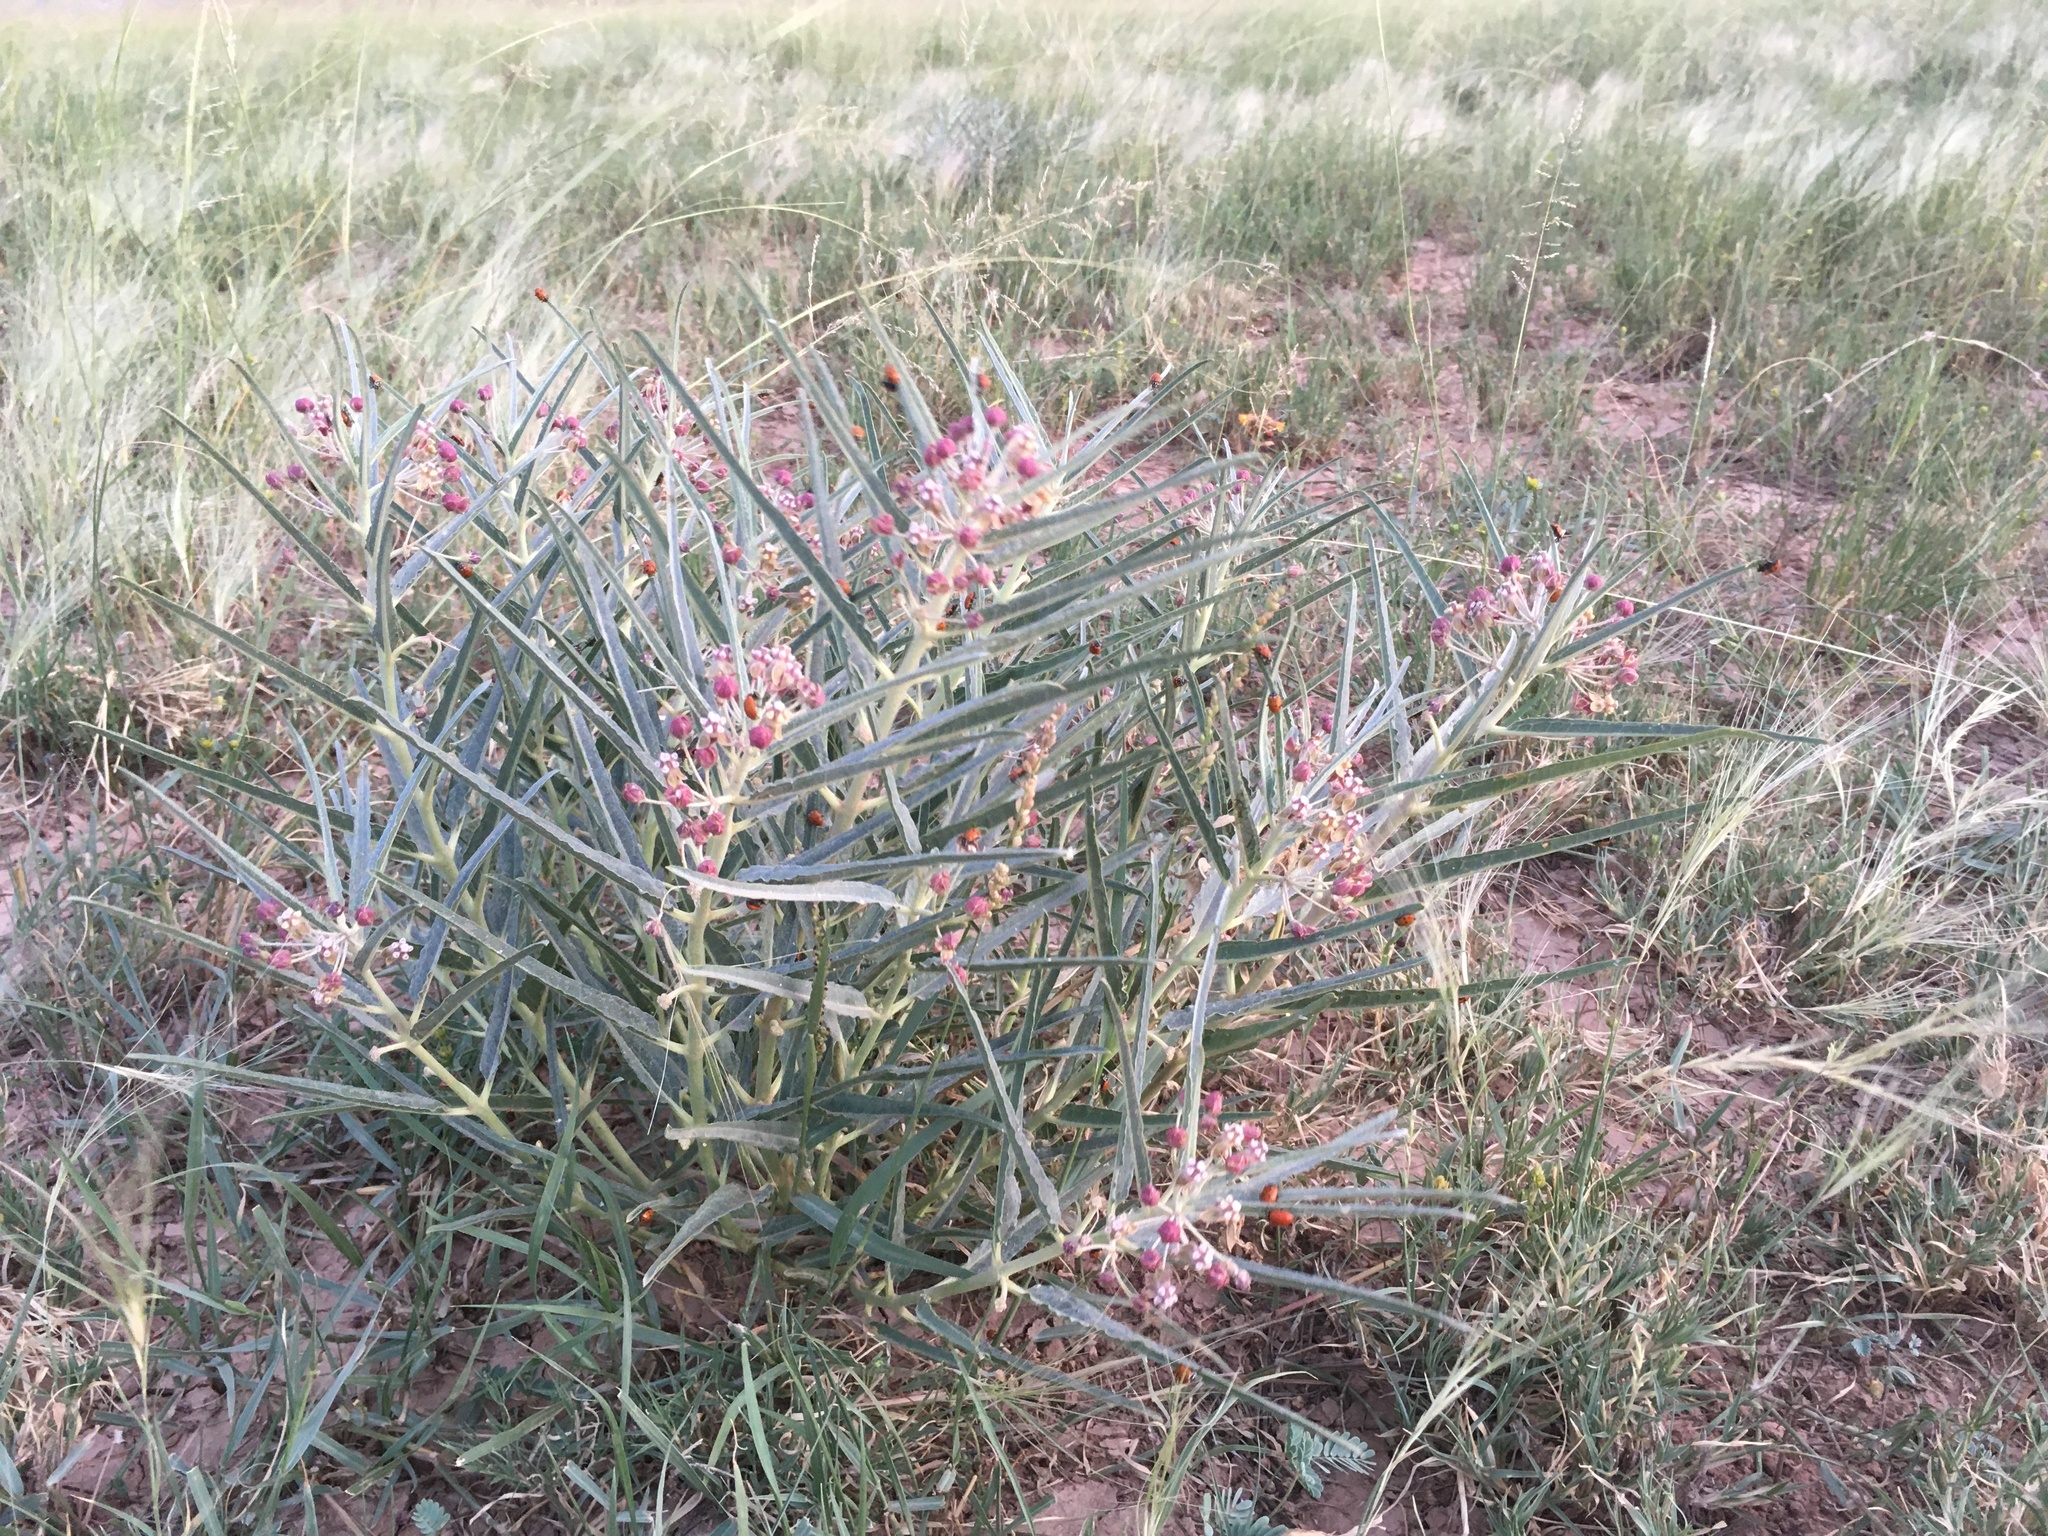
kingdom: Plantae
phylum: Tracheophyta
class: Magnoliopsida
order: Gentianales
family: Apocynaceae
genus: Asclepias
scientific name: Asclepias brachystephana
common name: Shortcrown milkweed
